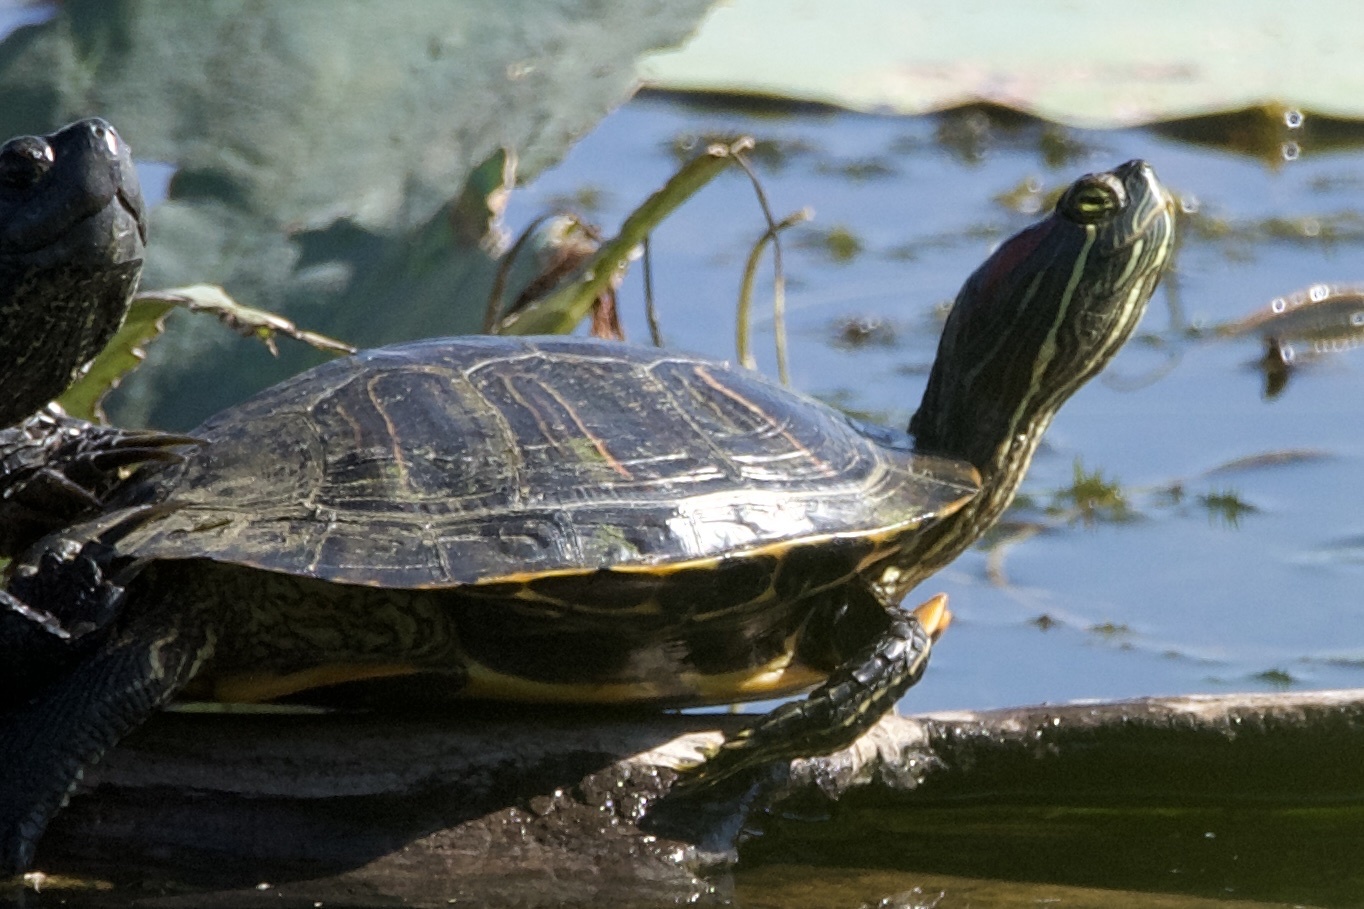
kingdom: Animalia
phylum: Chordata
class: Testudines
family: Emydidae
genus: Trachemys
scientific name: Trachemys scripta
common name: Slider
